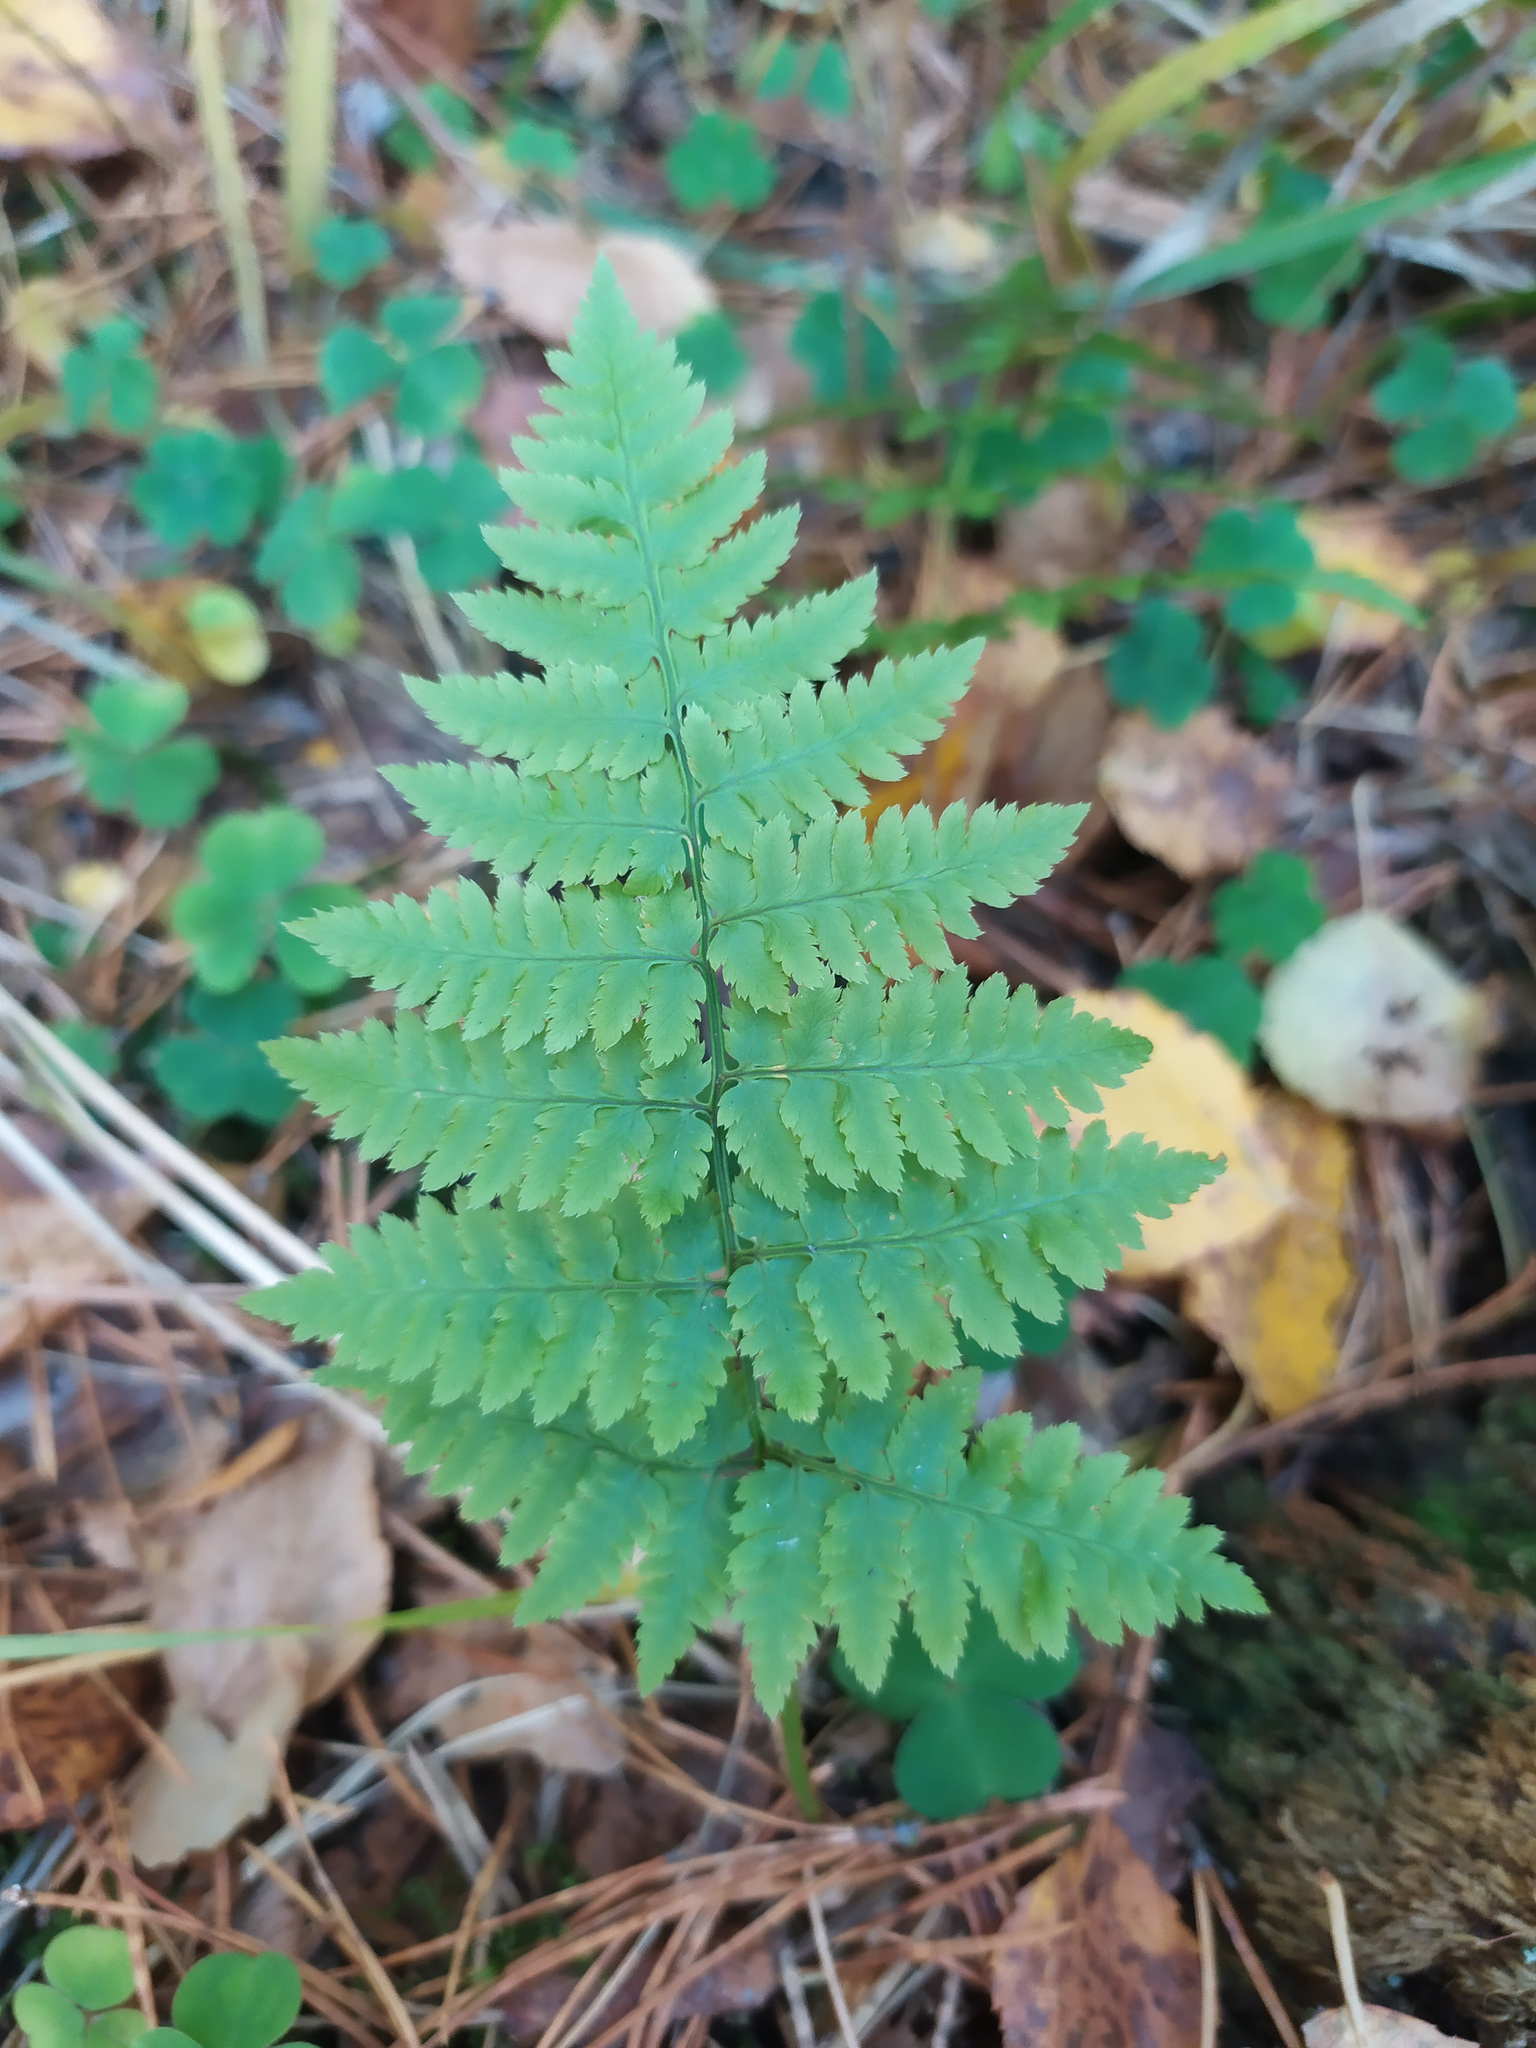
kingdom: Plantae
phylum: Tracheophyta
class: Polypodiopsida
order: Polypodiales
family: Dryopteridaceae
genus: Dryopteris
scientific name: Dryopteris carthusiana
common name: Narrow buckler-fern
